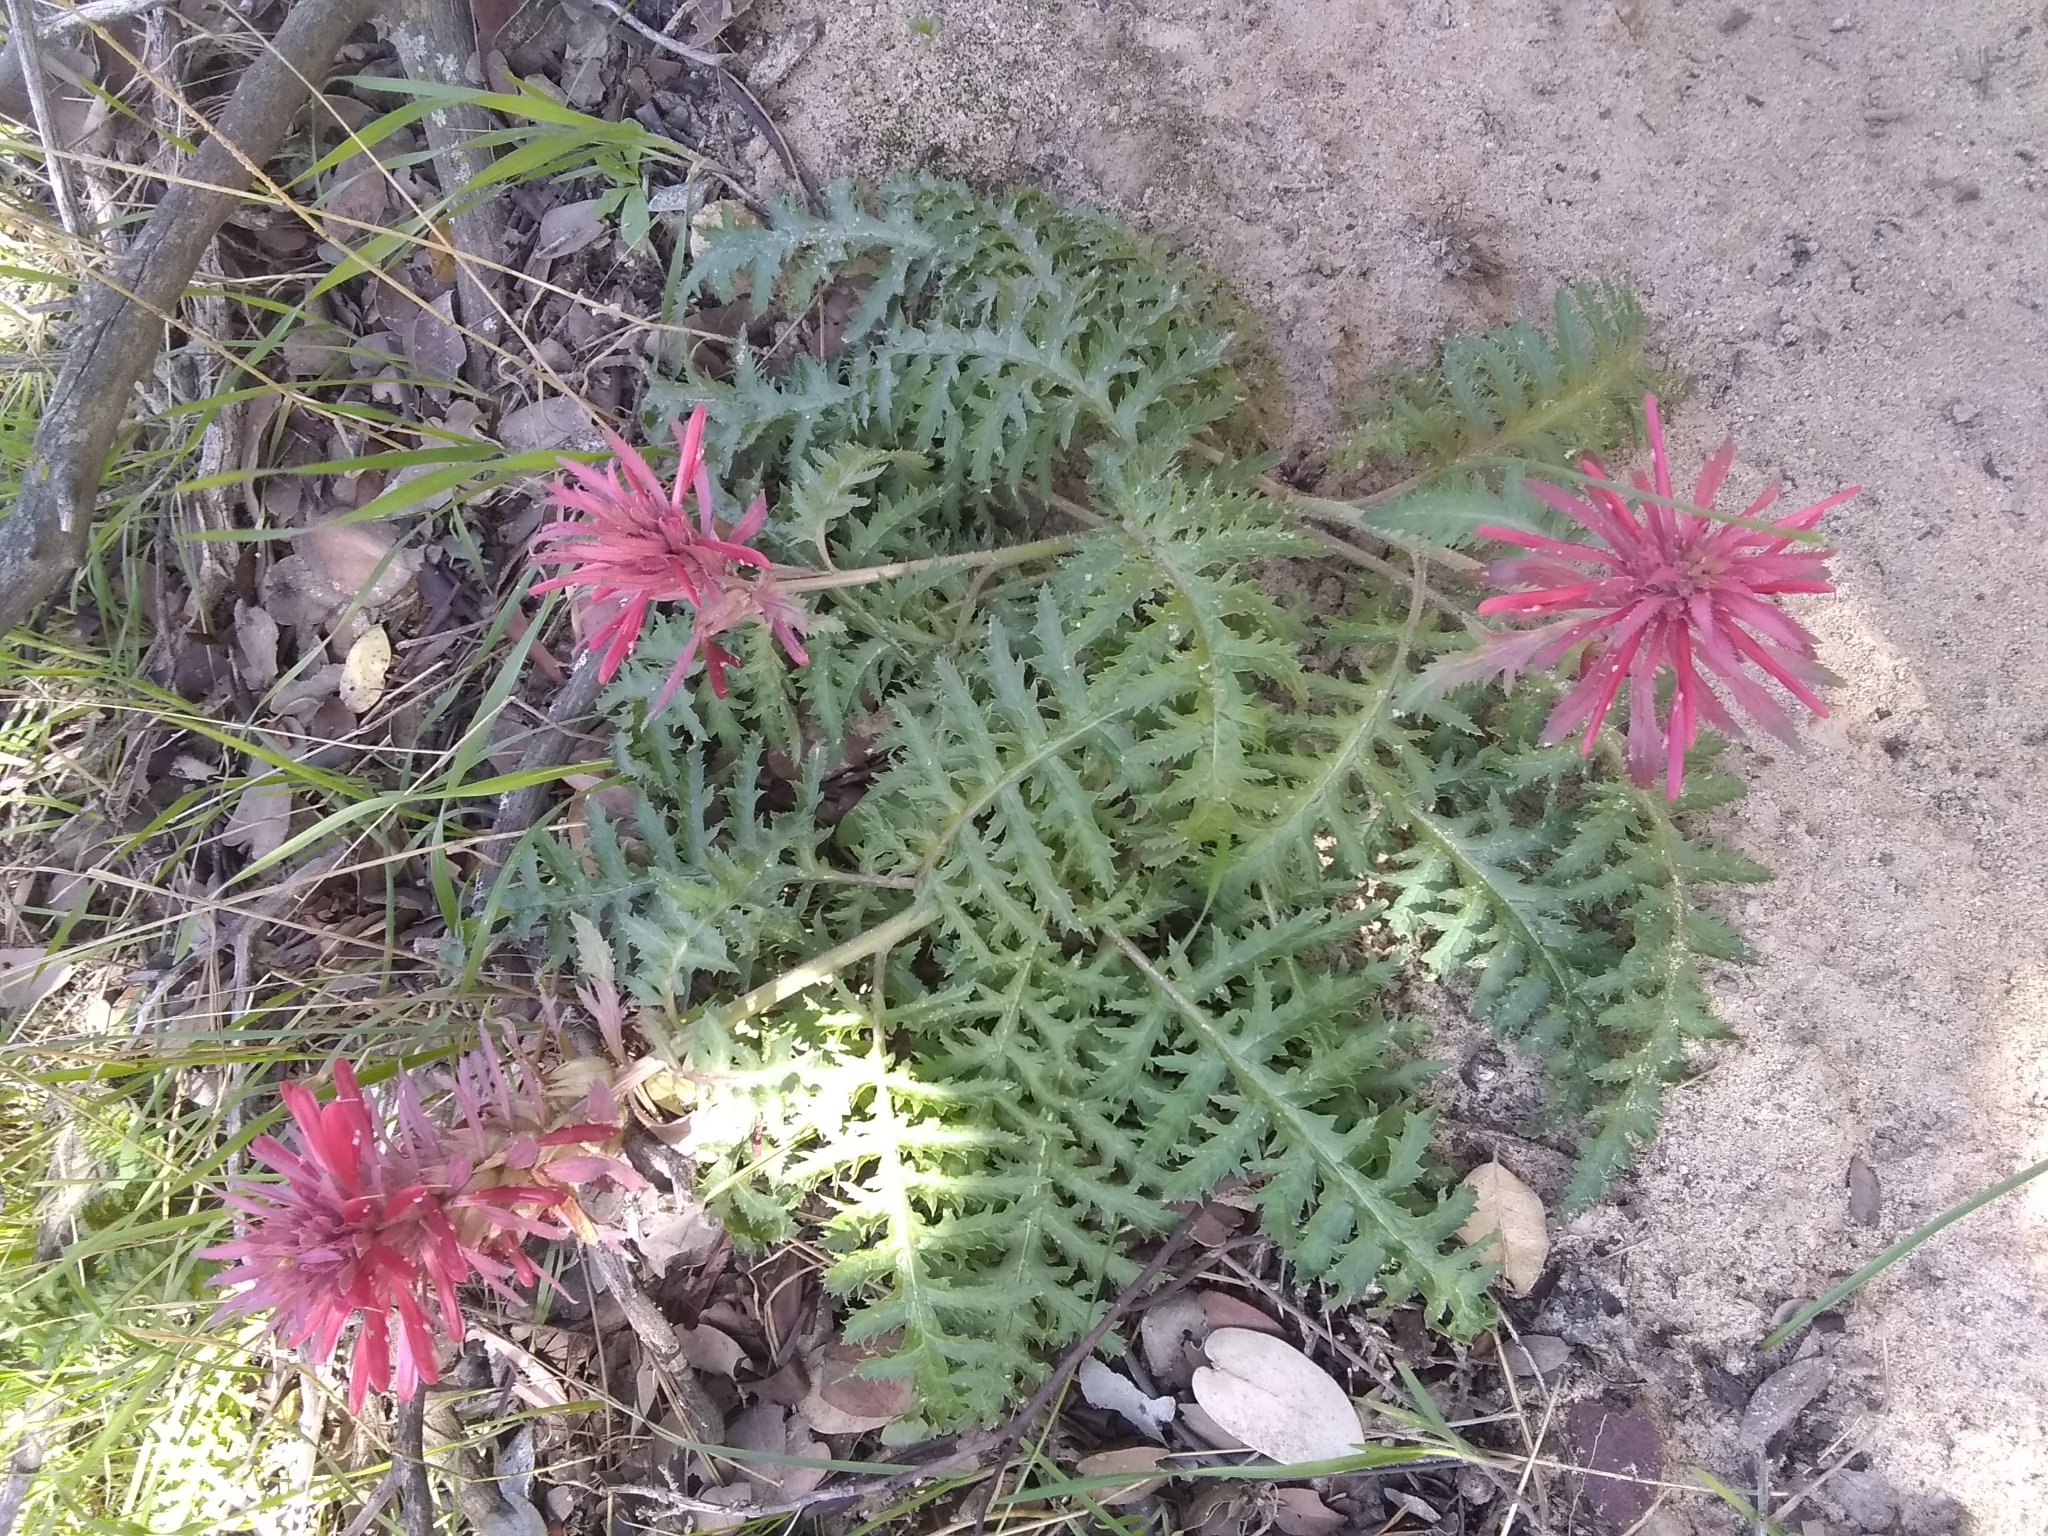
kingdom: Plantae
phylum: Tracheophyta
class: Magnoliopsida
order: Lamiales
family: Orobanchaceae
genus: Pedicularis
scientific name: Pedicularis densiflora
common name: Indian warrior
